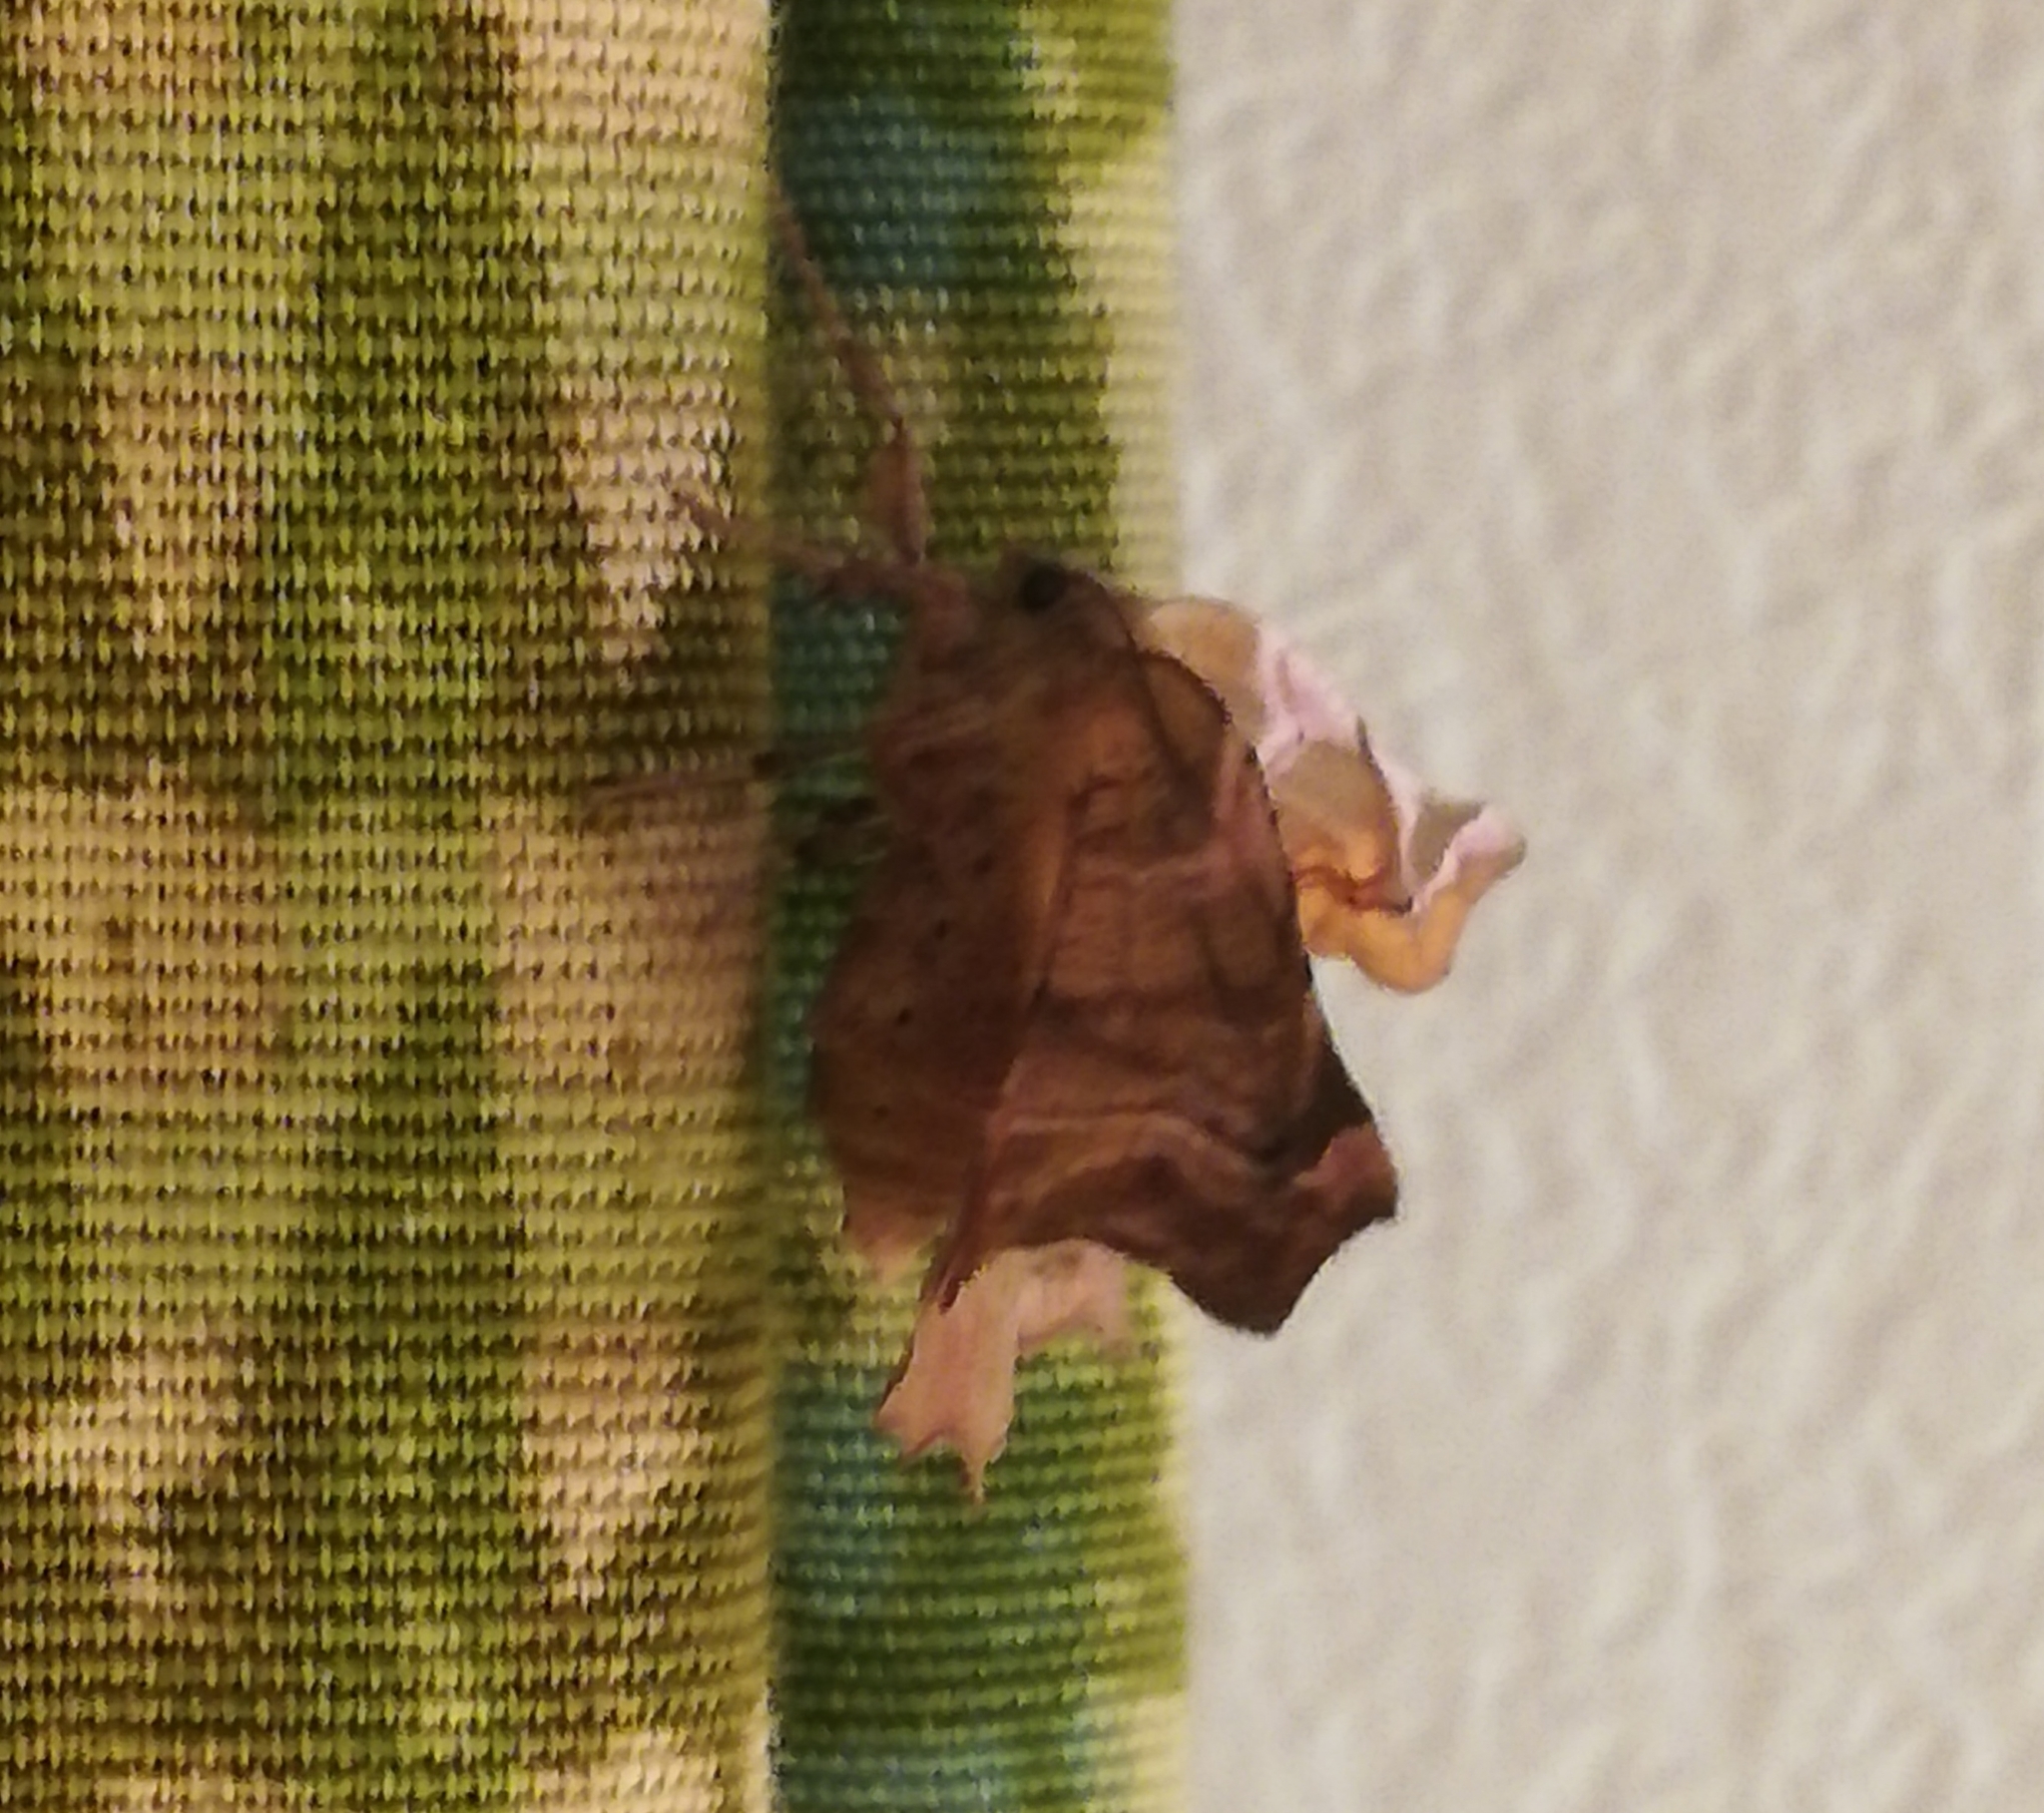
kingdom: Animalia
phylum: Arthropoda
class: Insecta
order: Lepidoptera
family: Geometridae
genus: Apeira
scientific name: Apeira syringaria
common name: Lilac beauty
